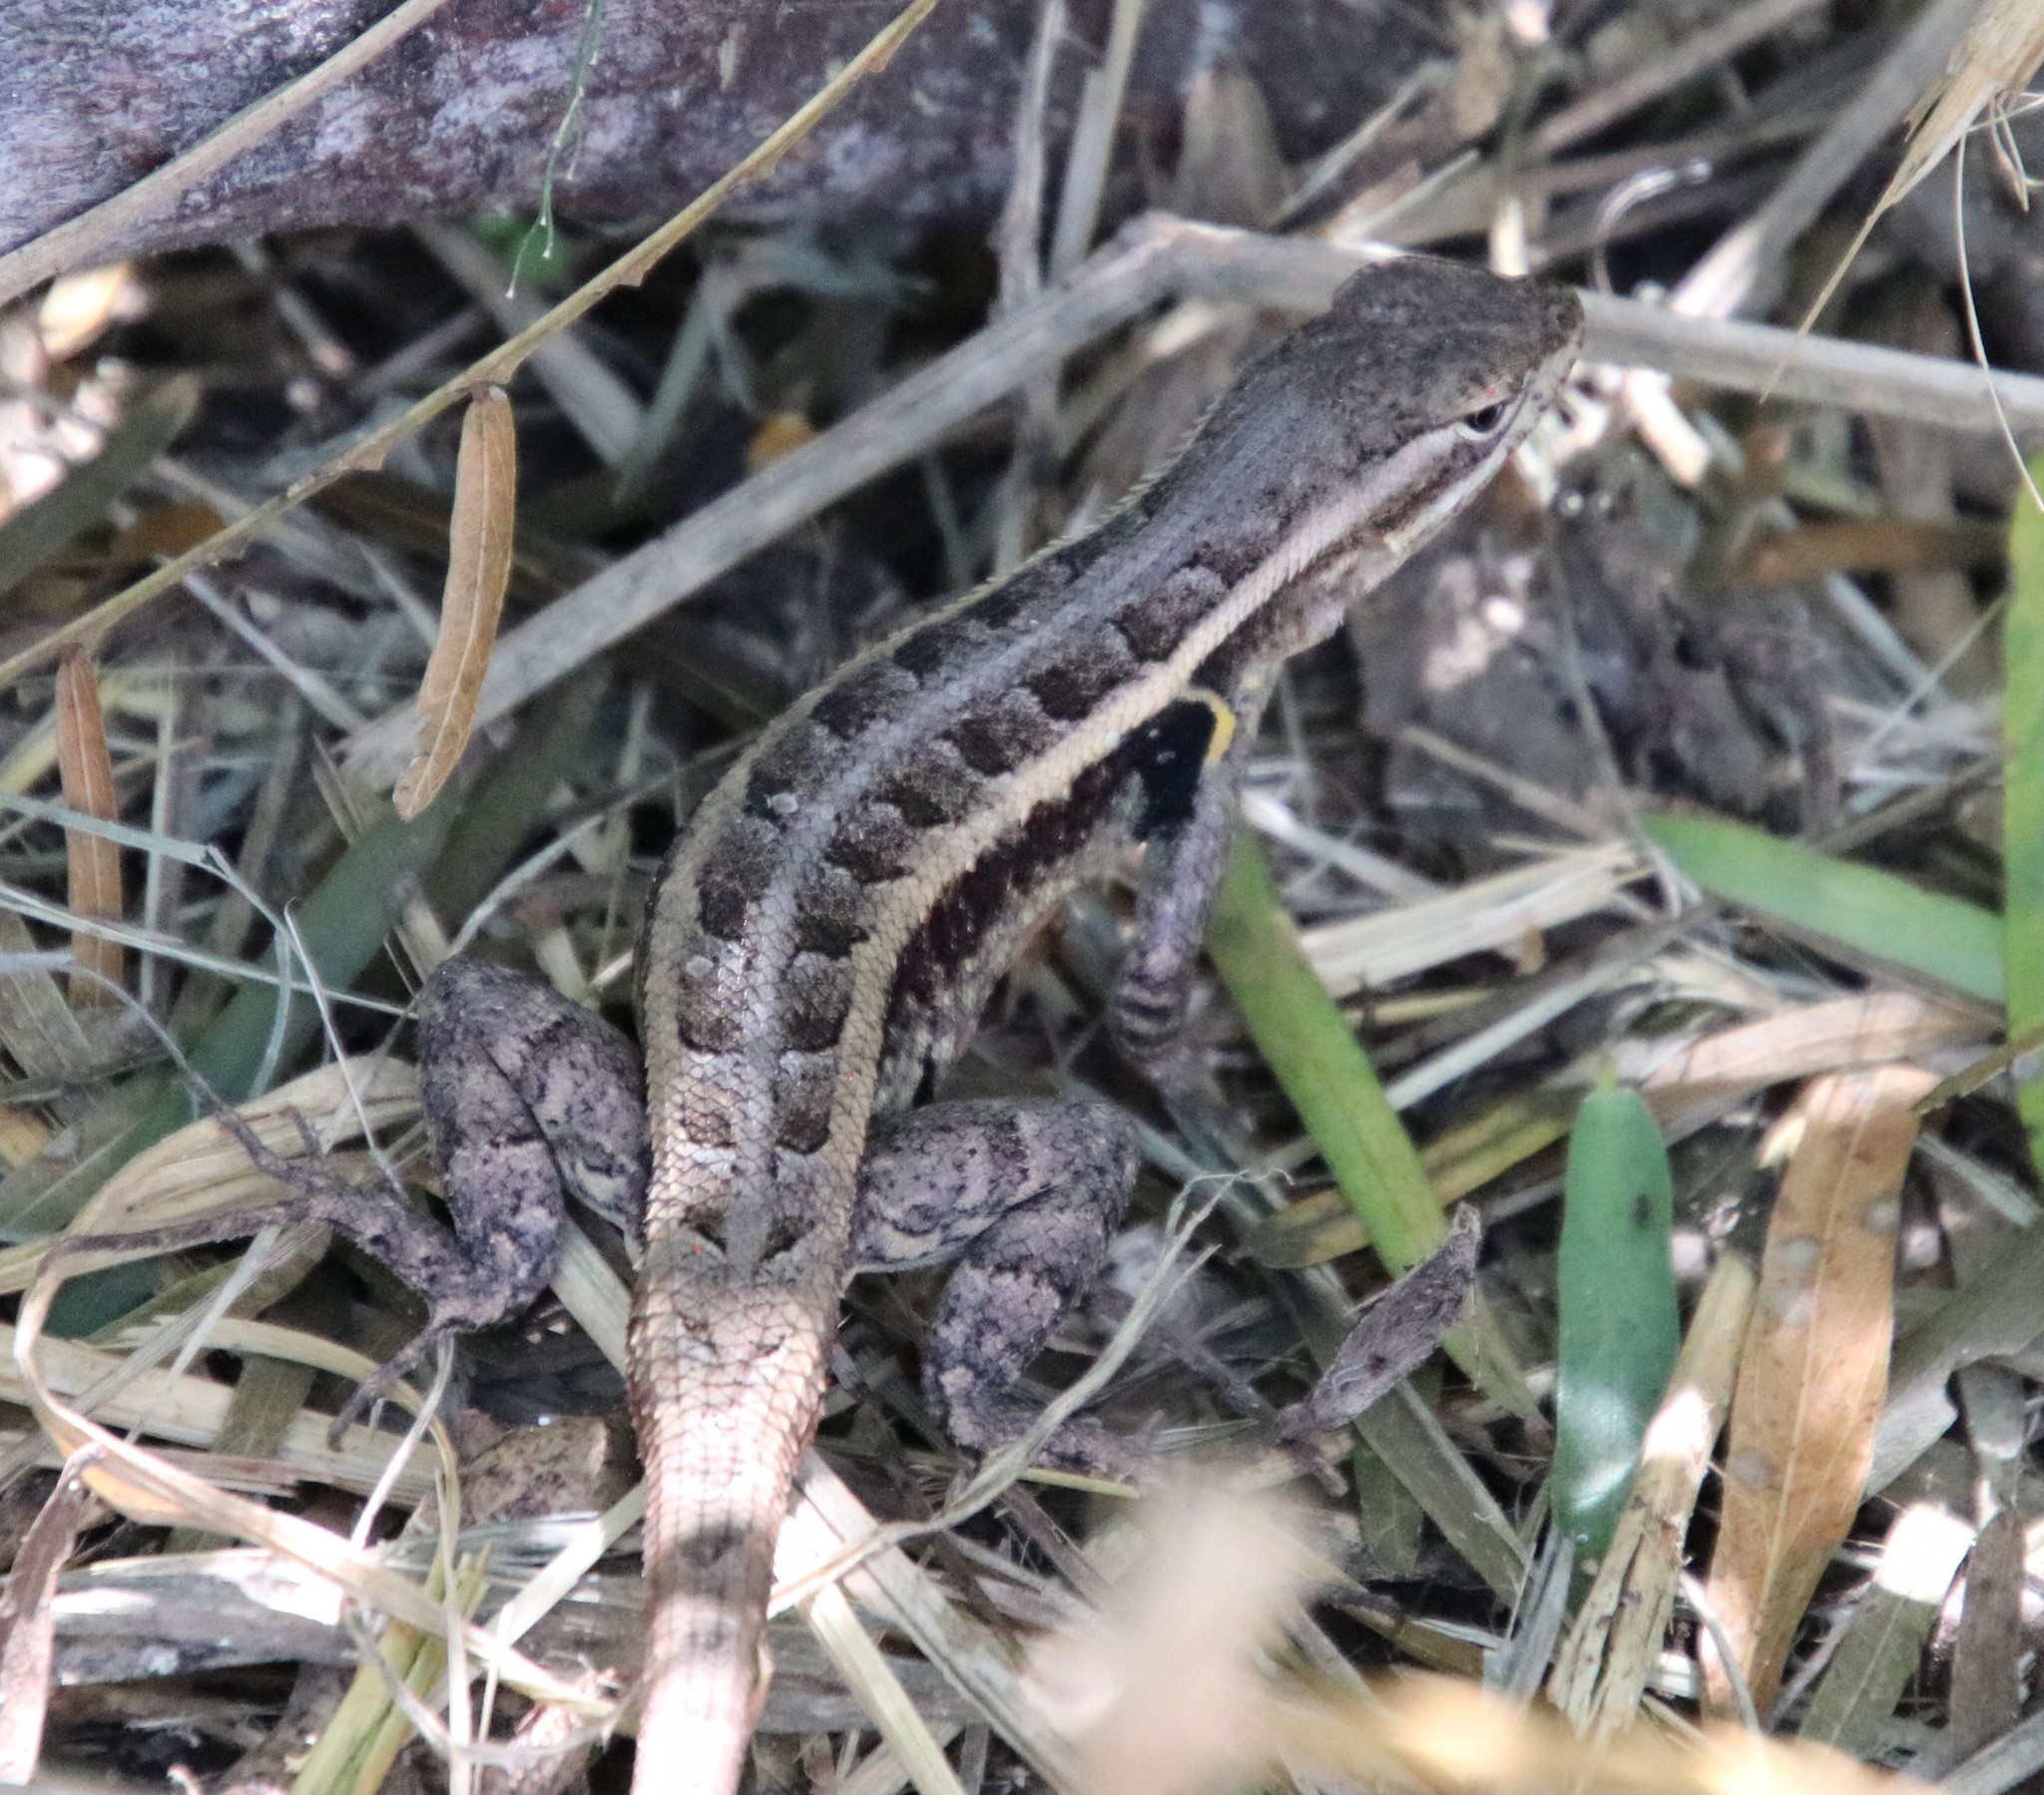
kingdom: Animalia
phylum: Chordata
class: Squamata
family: Phrynosomatidae
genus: Sceloporus
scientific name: Sceloporus variabilis
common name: Rosebelly lizard
